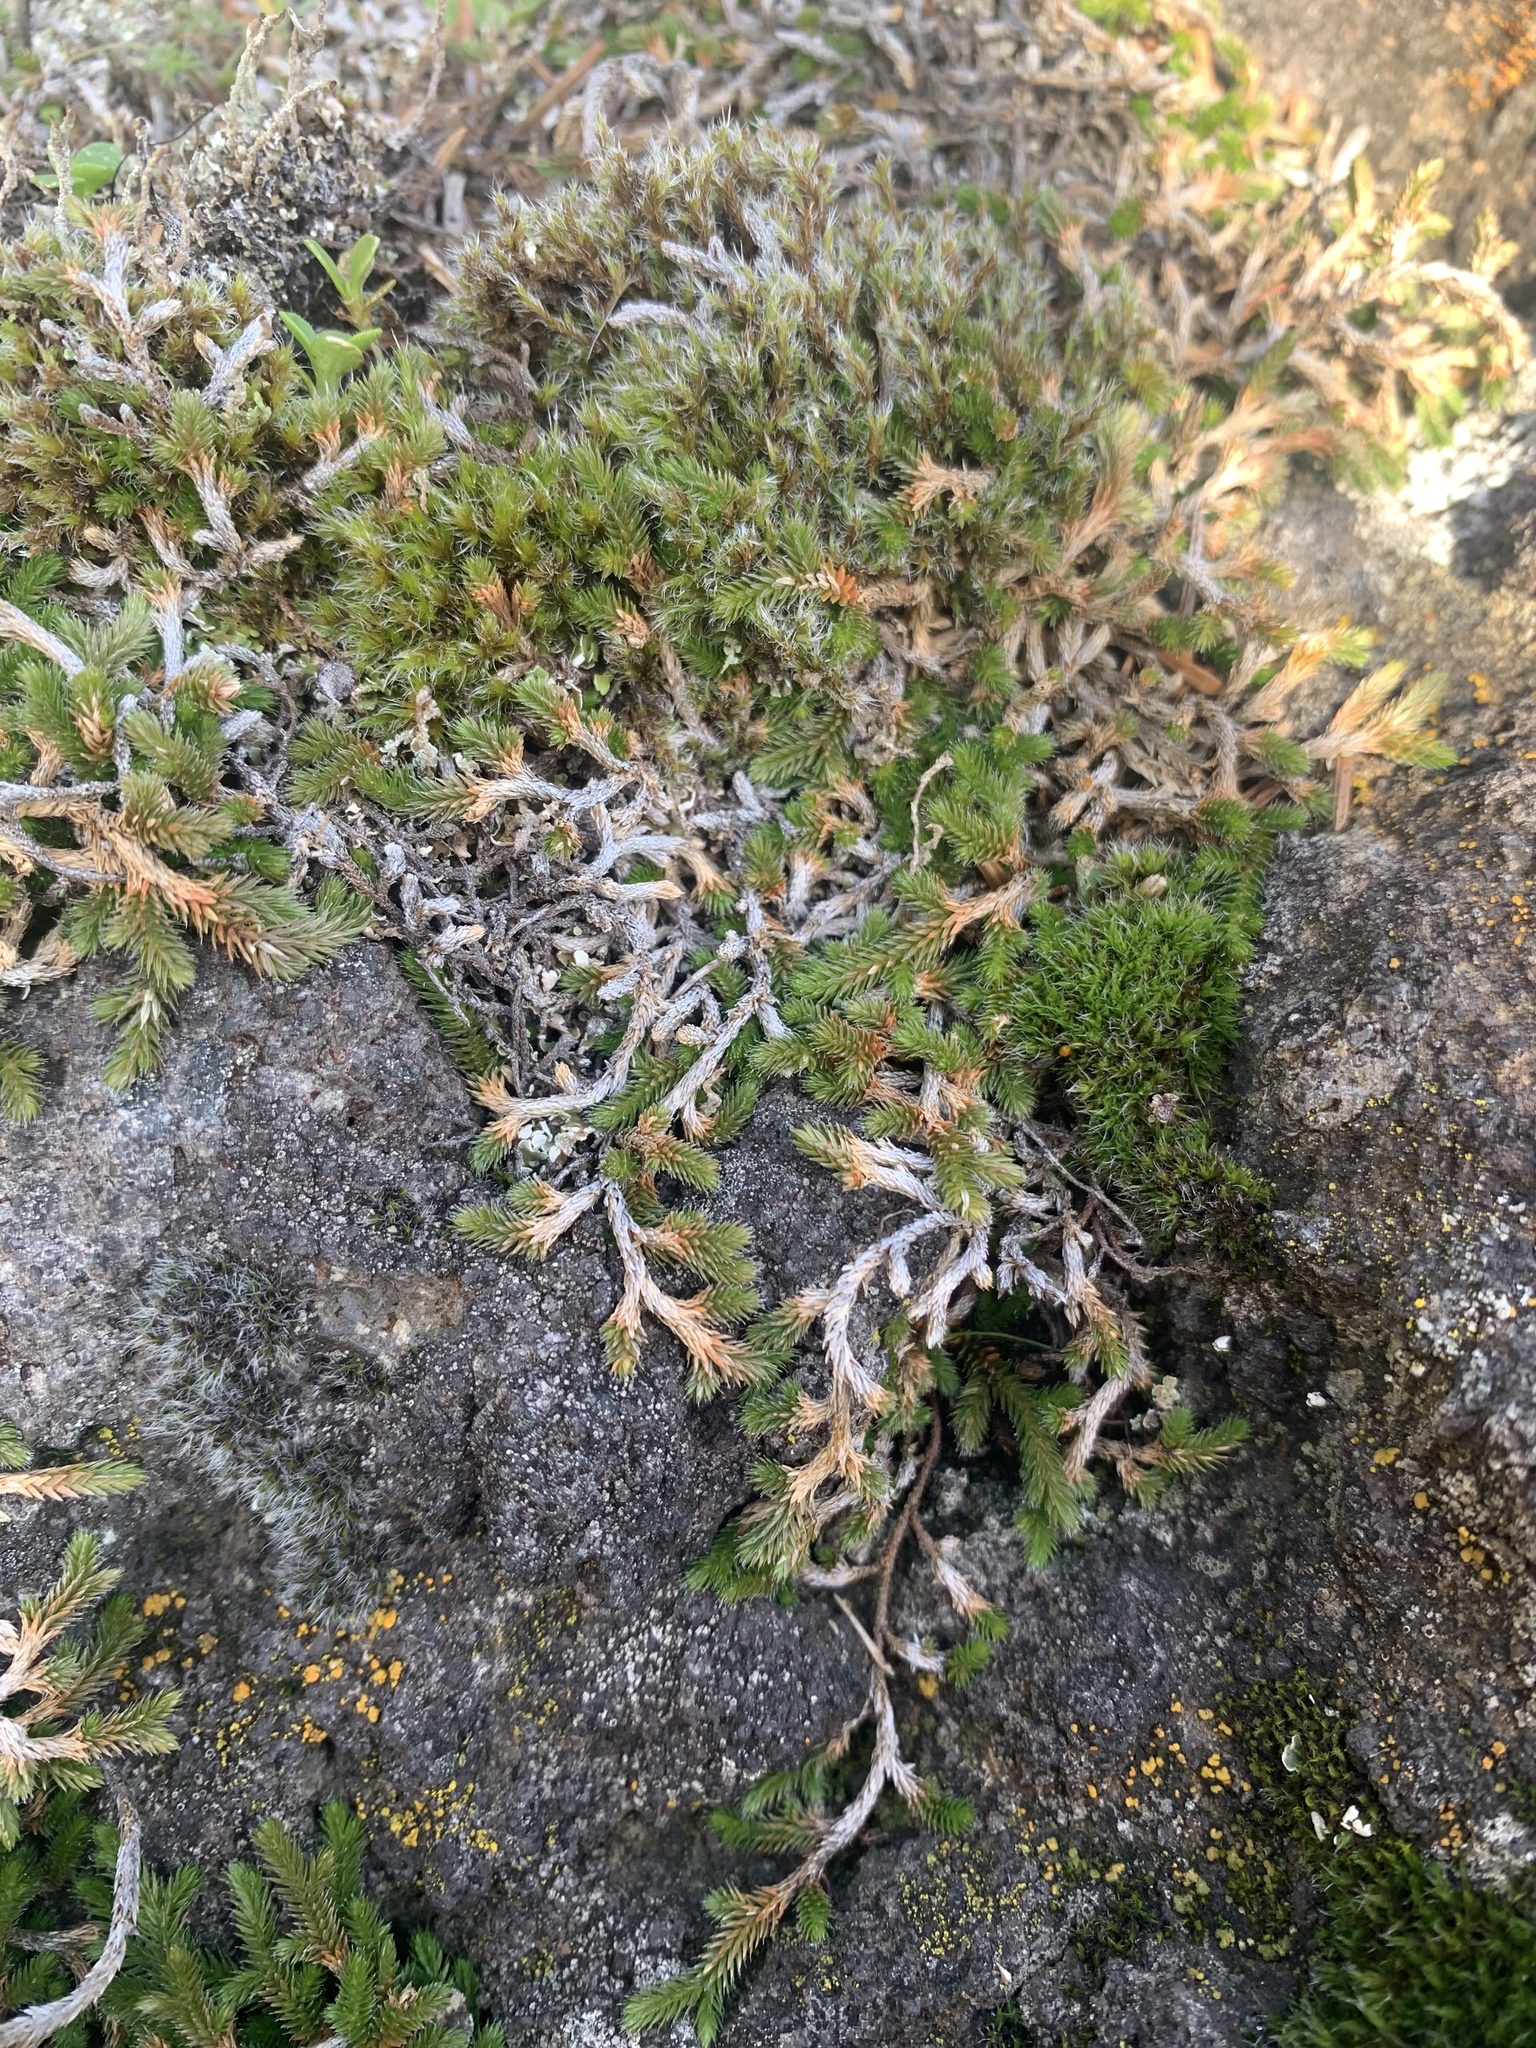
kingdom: Plantae
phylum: Tracheophyta
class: Lycopodiopsida
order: Selaginellales
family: Selaginellaceae
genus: Selaginella
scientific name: Selaginella wallacei
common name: Wallace's selaginella
